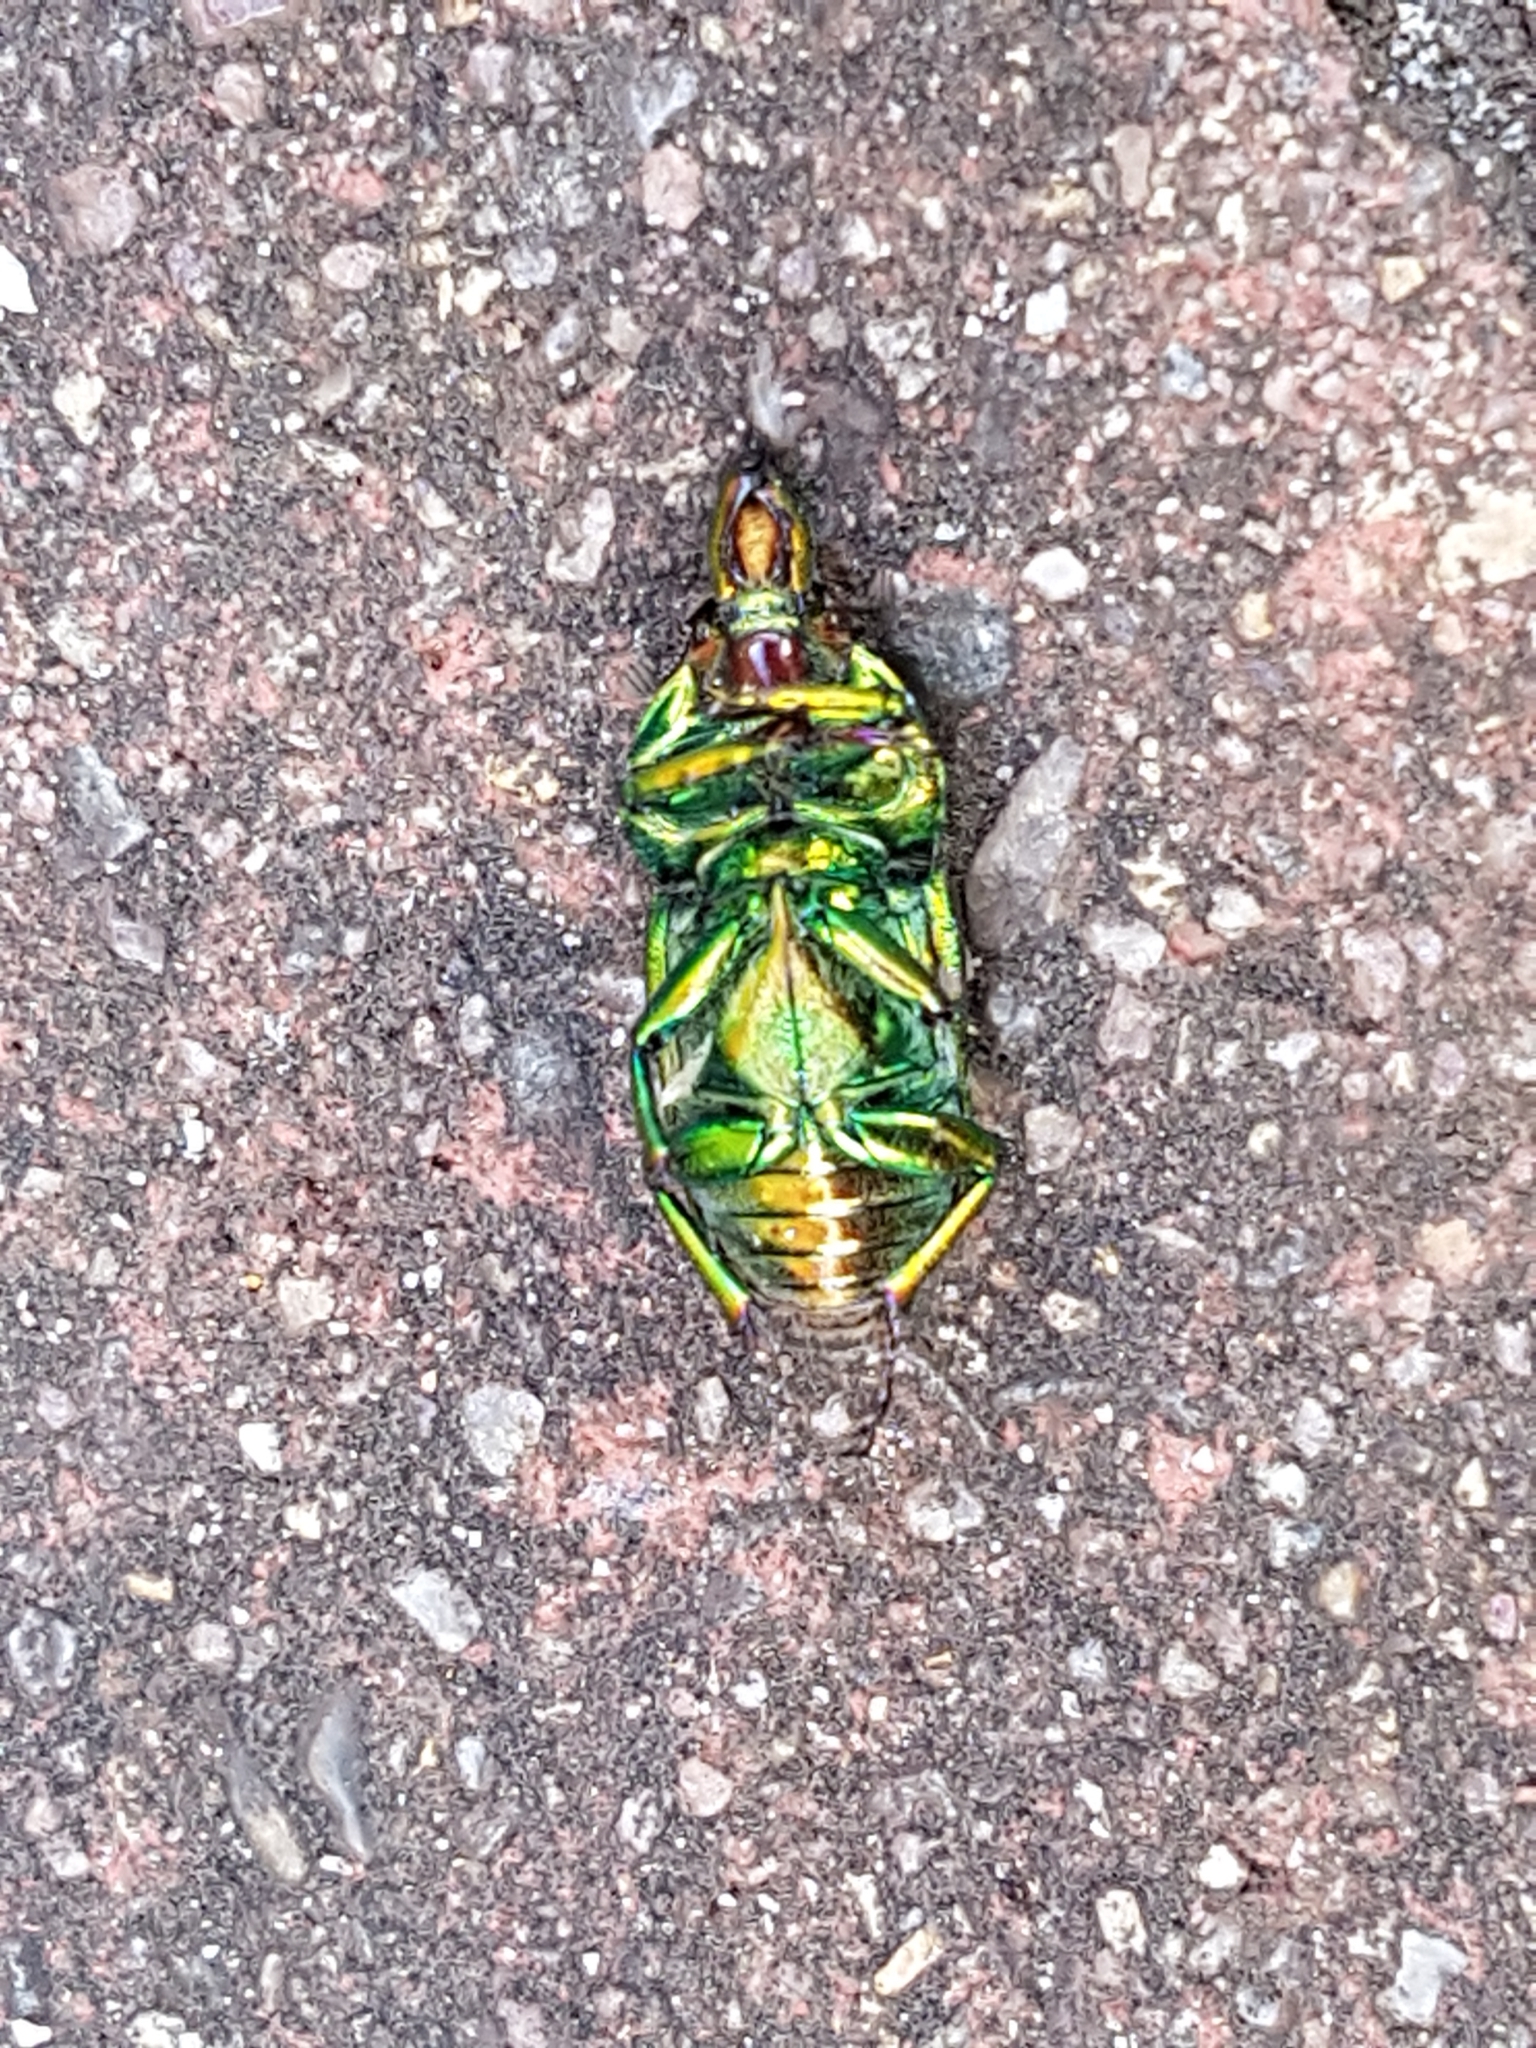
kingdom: Animalia
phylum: Arthropoda
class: Insecta
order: Coleoptera
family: Lucanidae
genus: Lamprima
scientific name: Lamprima aurata
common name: Golden stag beetle
